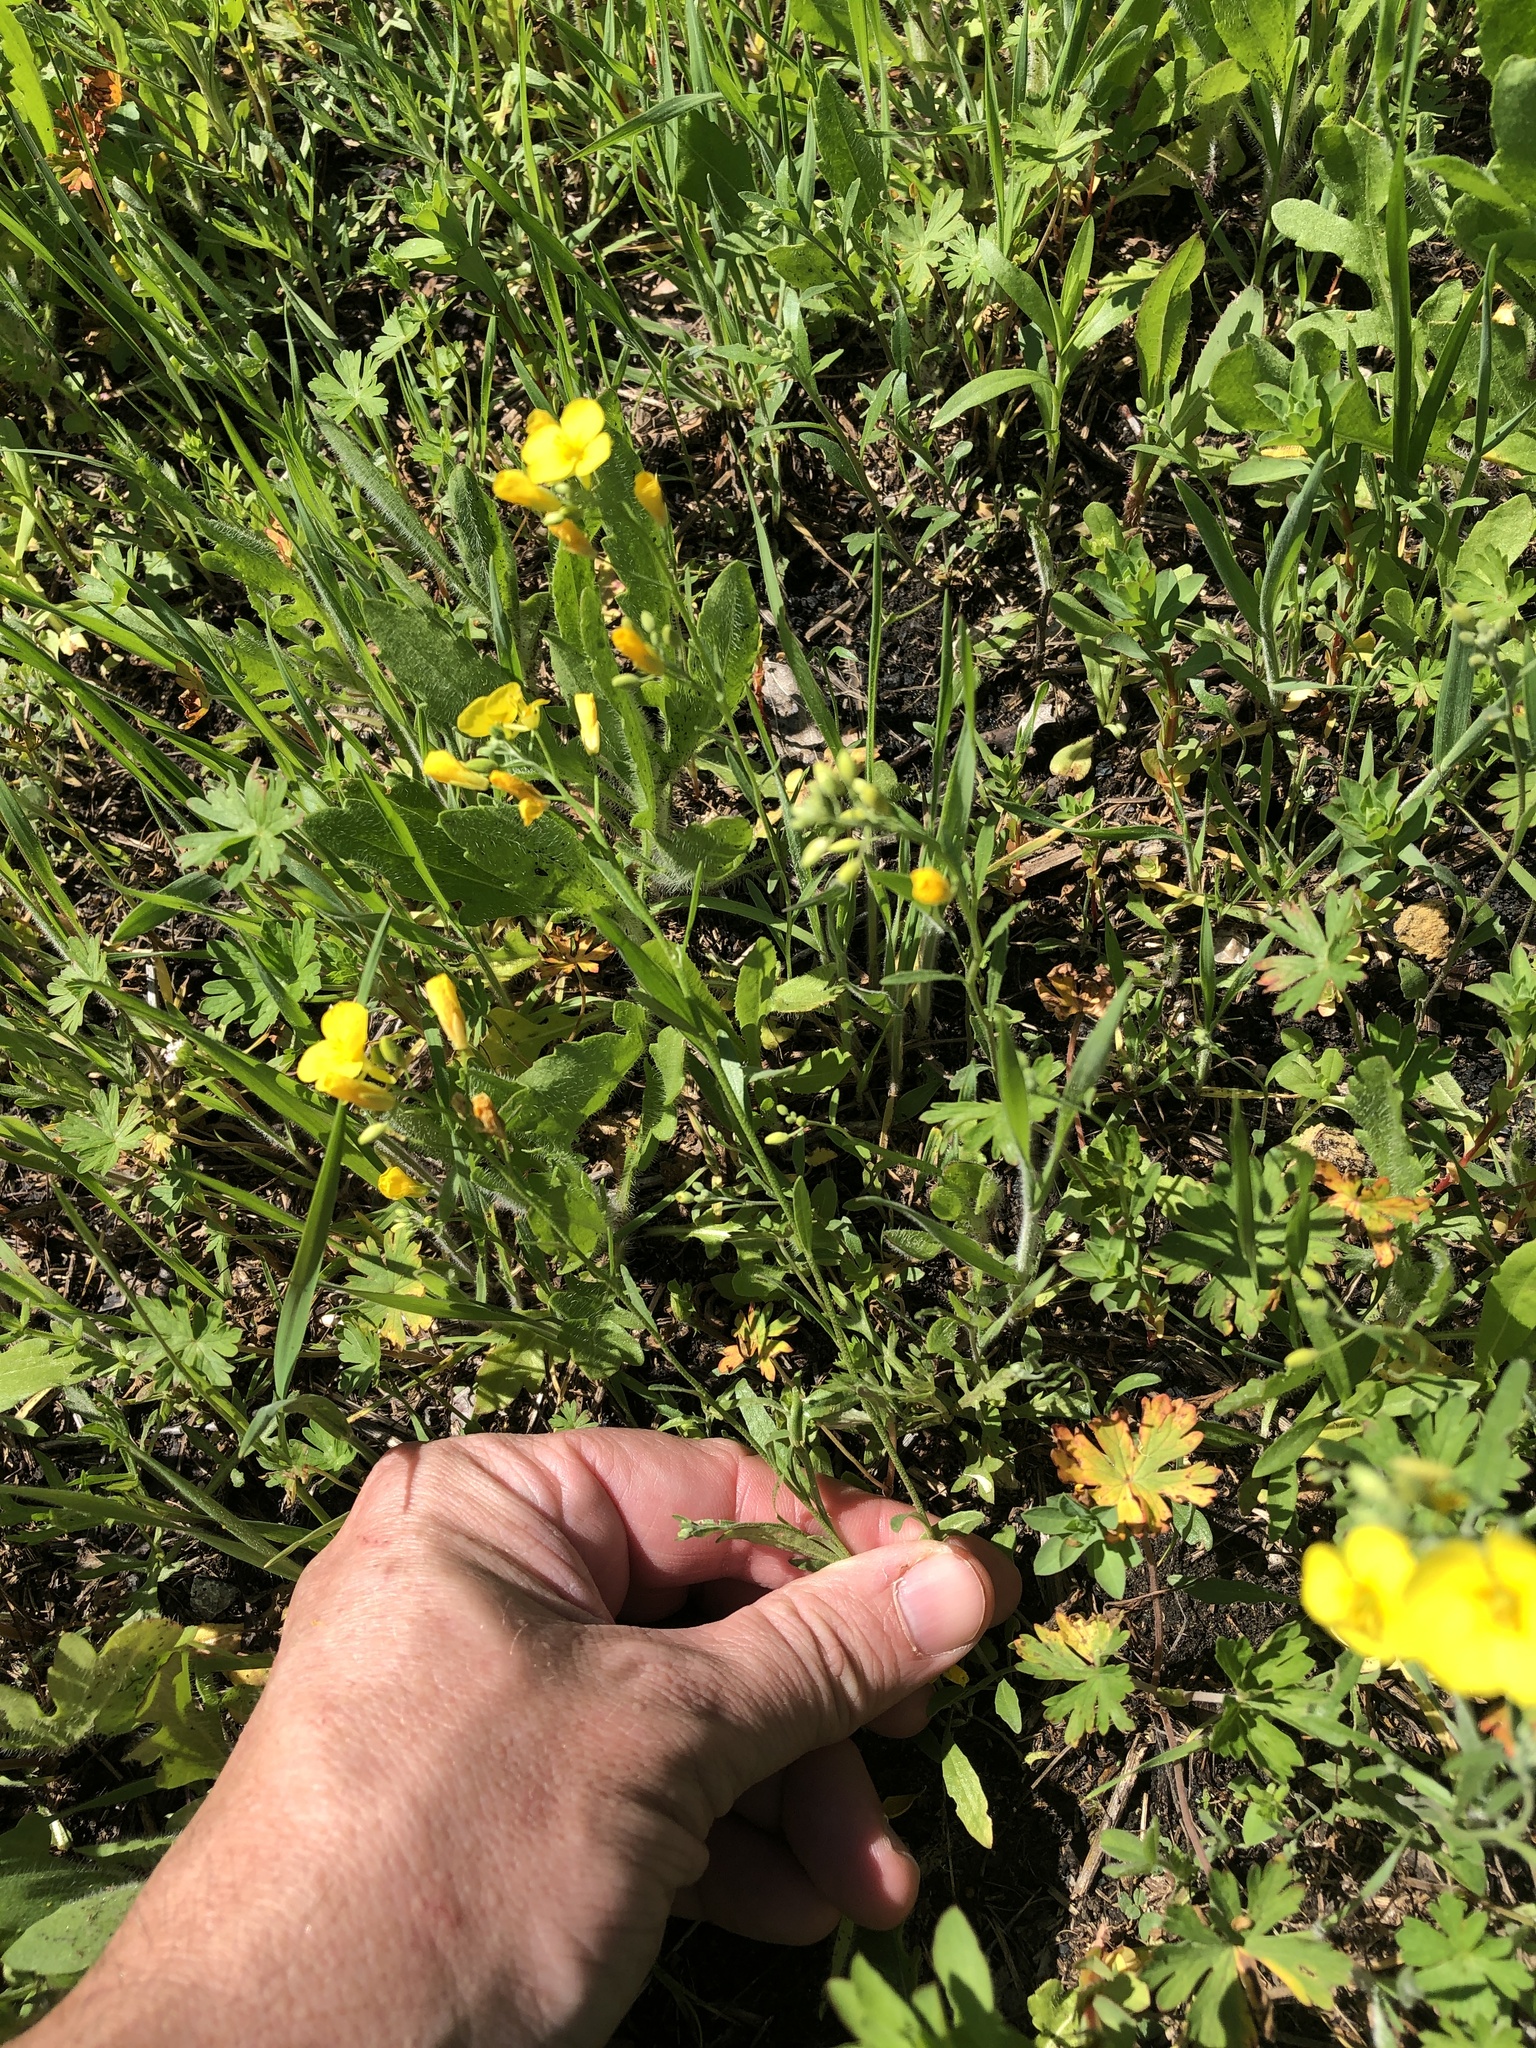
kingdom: Plantae
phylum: Tracheophyta
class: Magnoliopsida
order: Brassicales
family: Brassicaceae
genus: Physaria
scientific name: Physaria gracilis
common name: Spreading bladderpod
